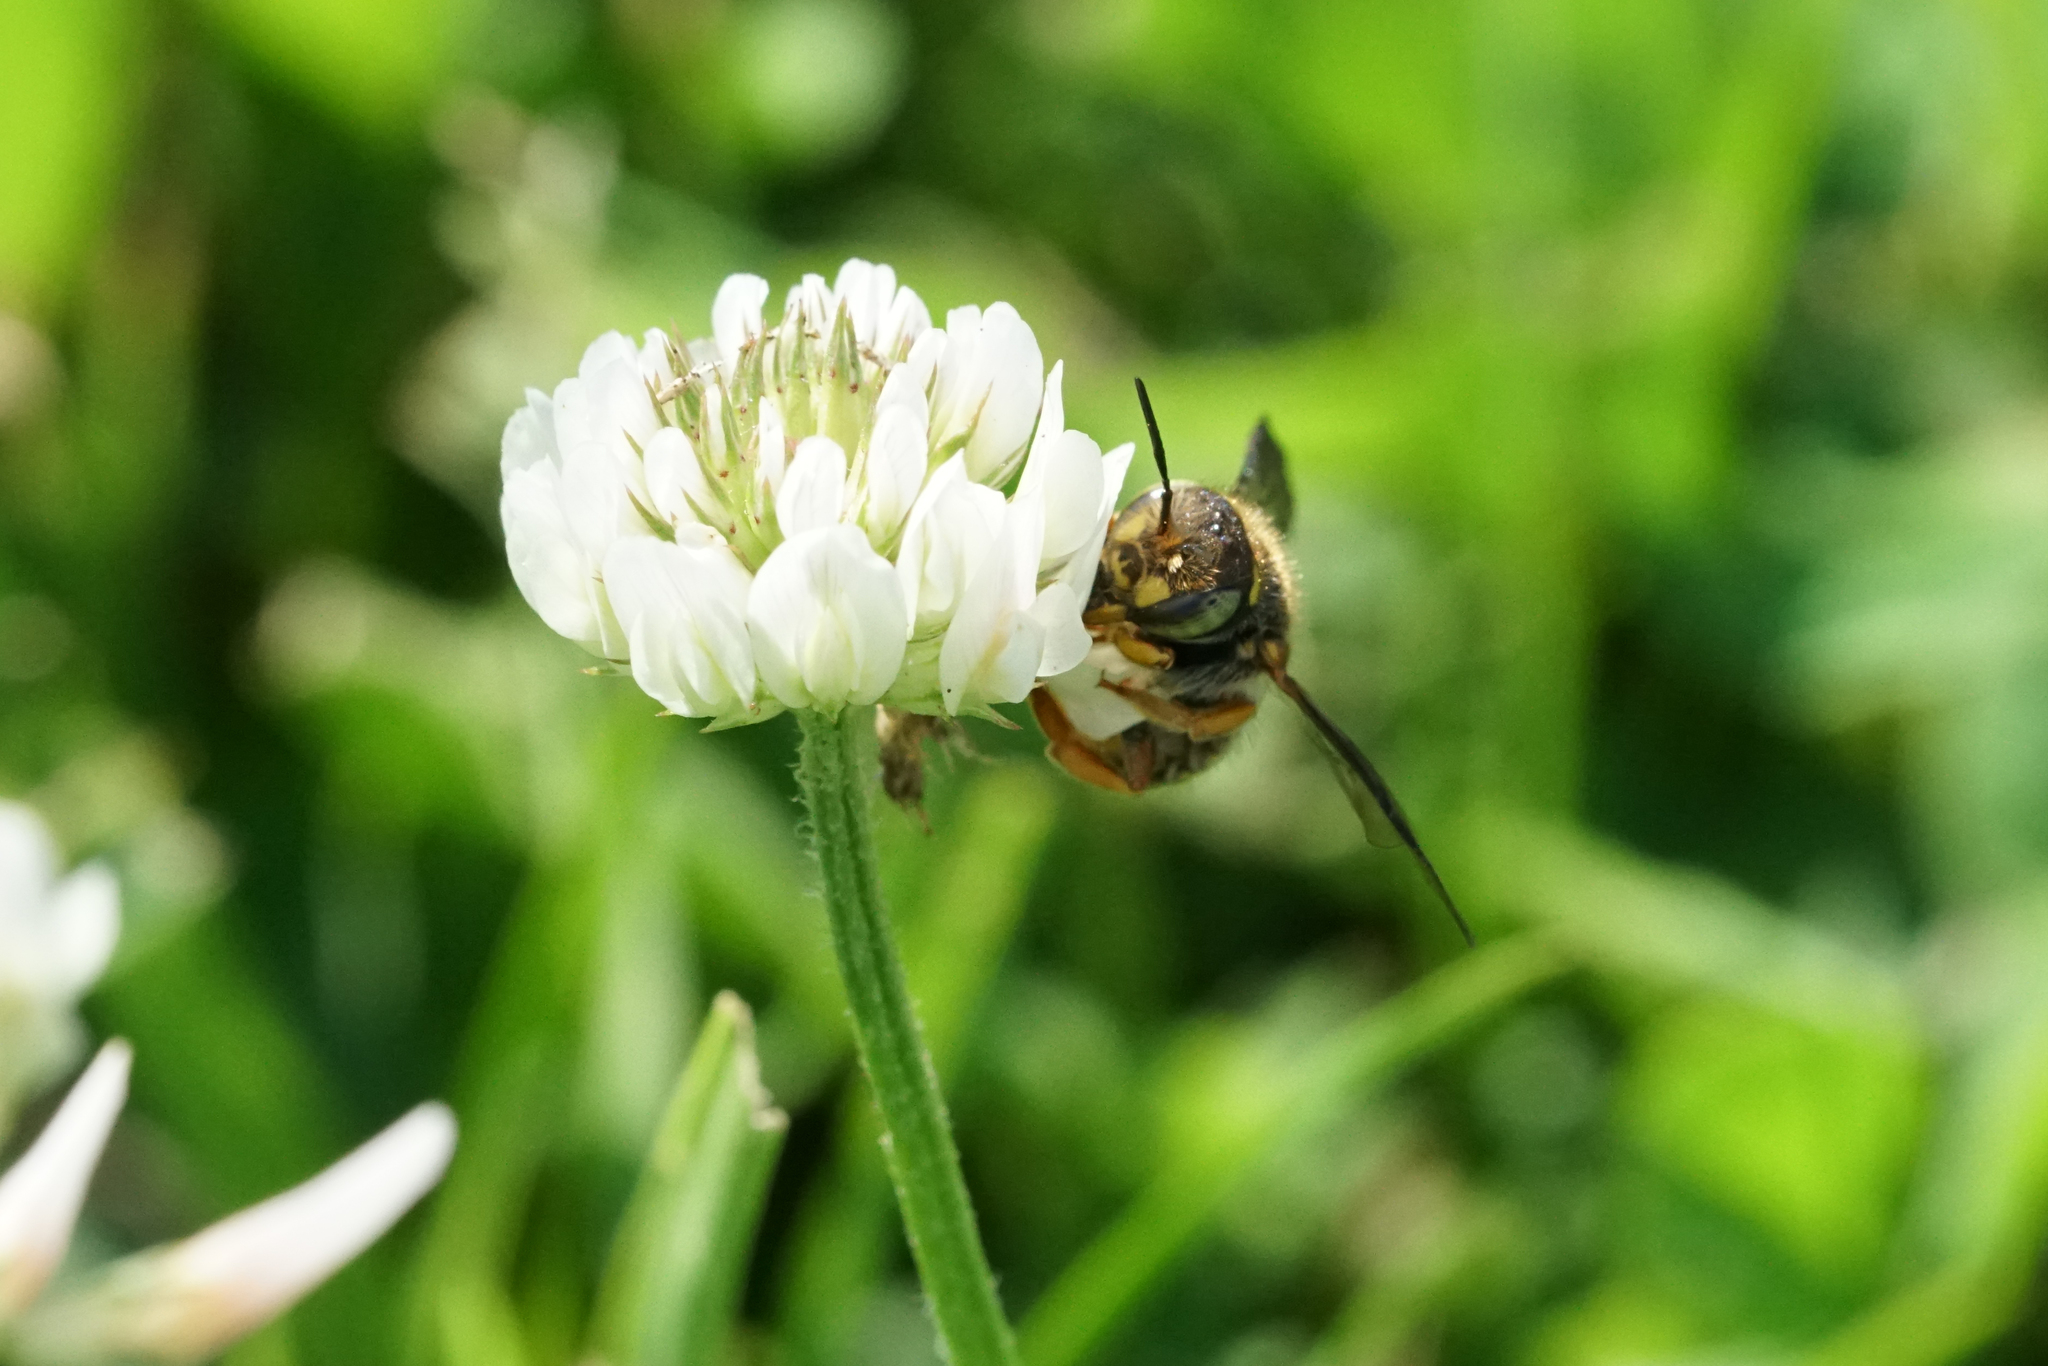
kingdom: Animalia
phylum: Arthropoda
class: Insecta
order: Hymenoptera
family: Megachilidae
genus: Anthidium
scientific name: Anthidium oblongatum
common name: Oblong wool carder bee
